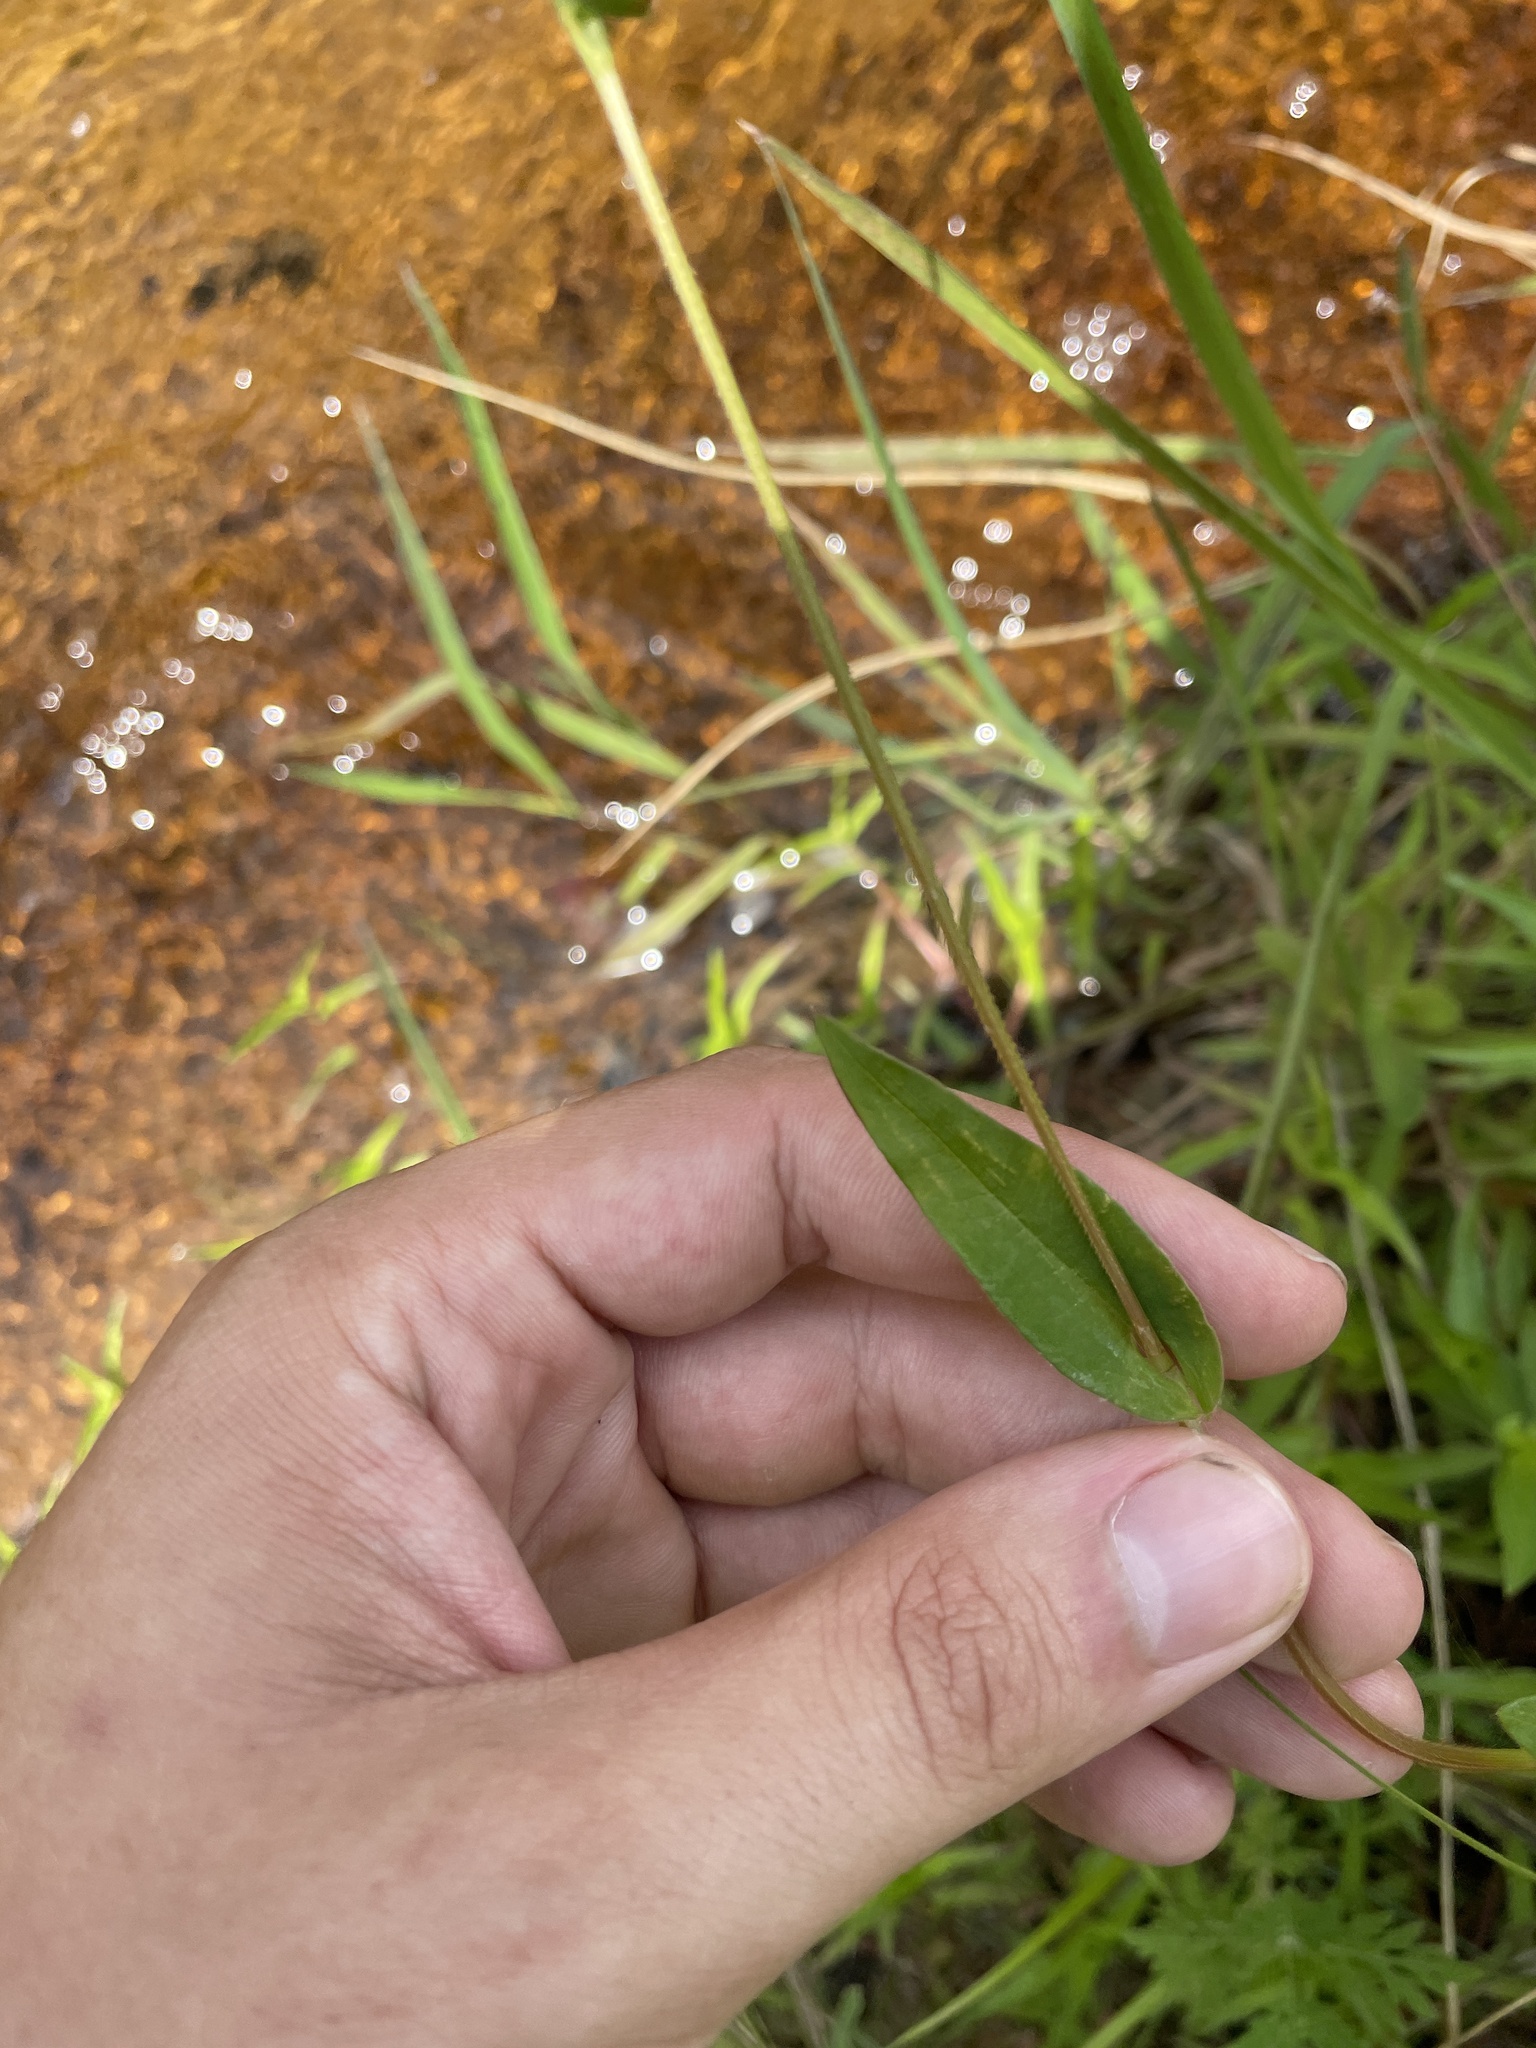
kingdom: Plantae
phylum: Tracheophyta
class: Magnoliopsida
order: Caryophyllales
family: Polygonaceae
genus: Persicaria
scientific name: Persicaria sagittata
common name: American tearthumb
